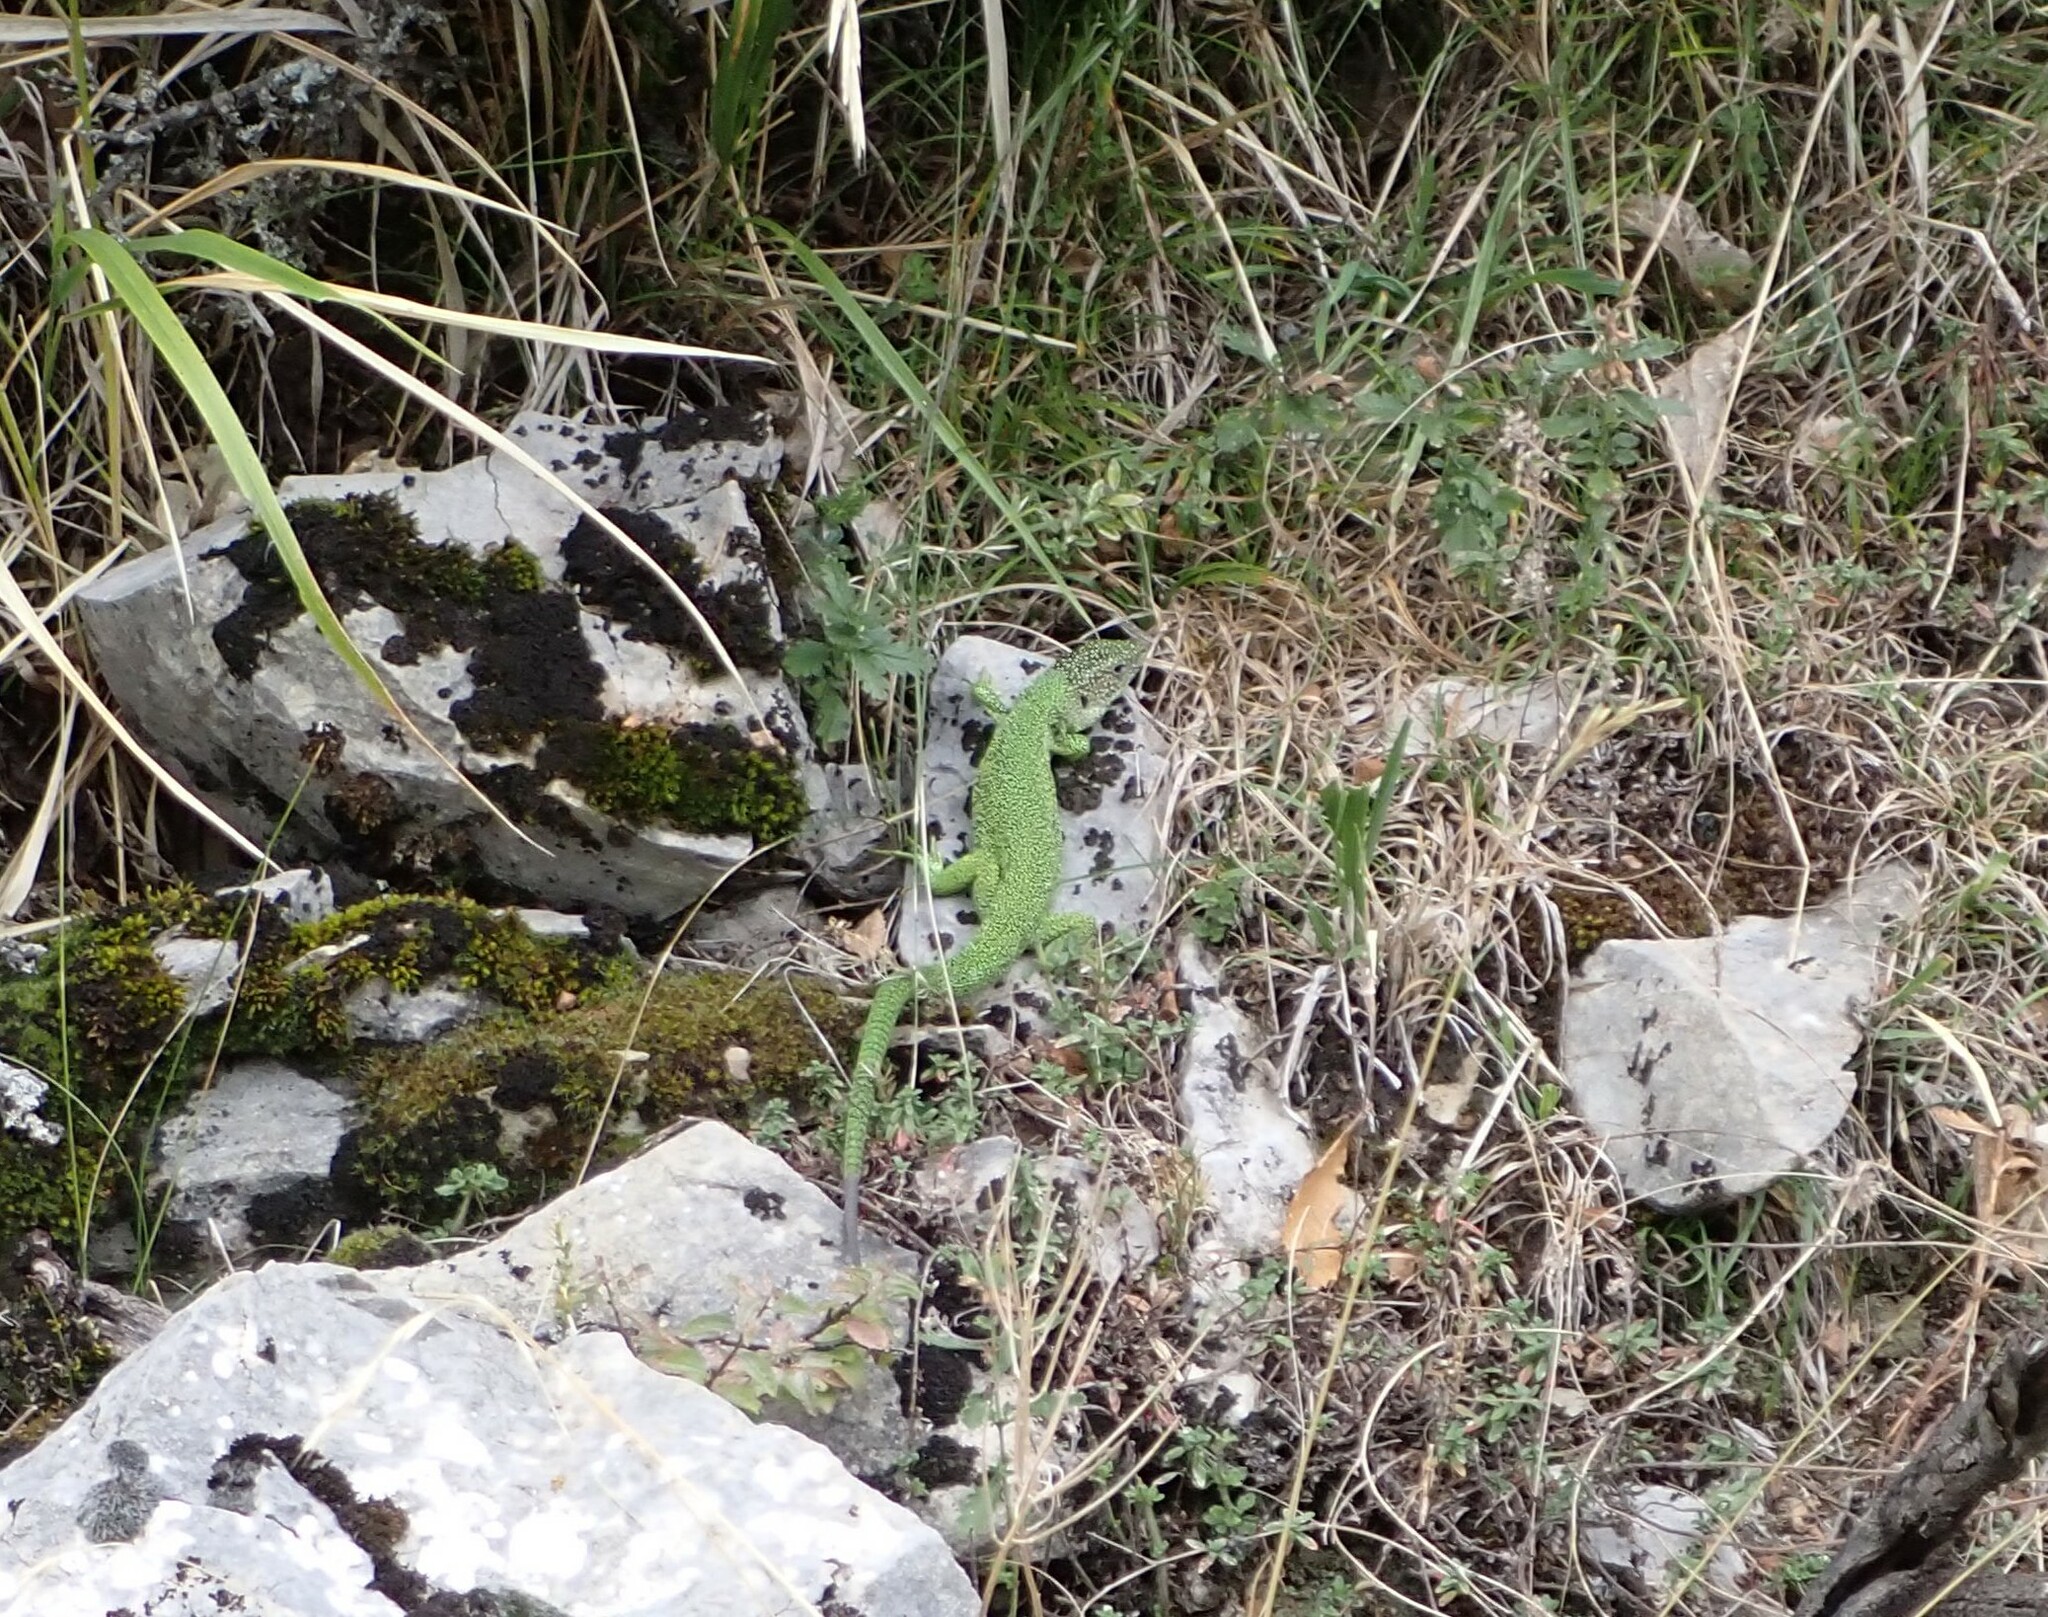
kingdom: Animalia
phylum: Chordata
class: Squamata
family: Lacertidae
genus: Lacerta
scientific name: Lacerta bilineata
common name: Western green lizard
